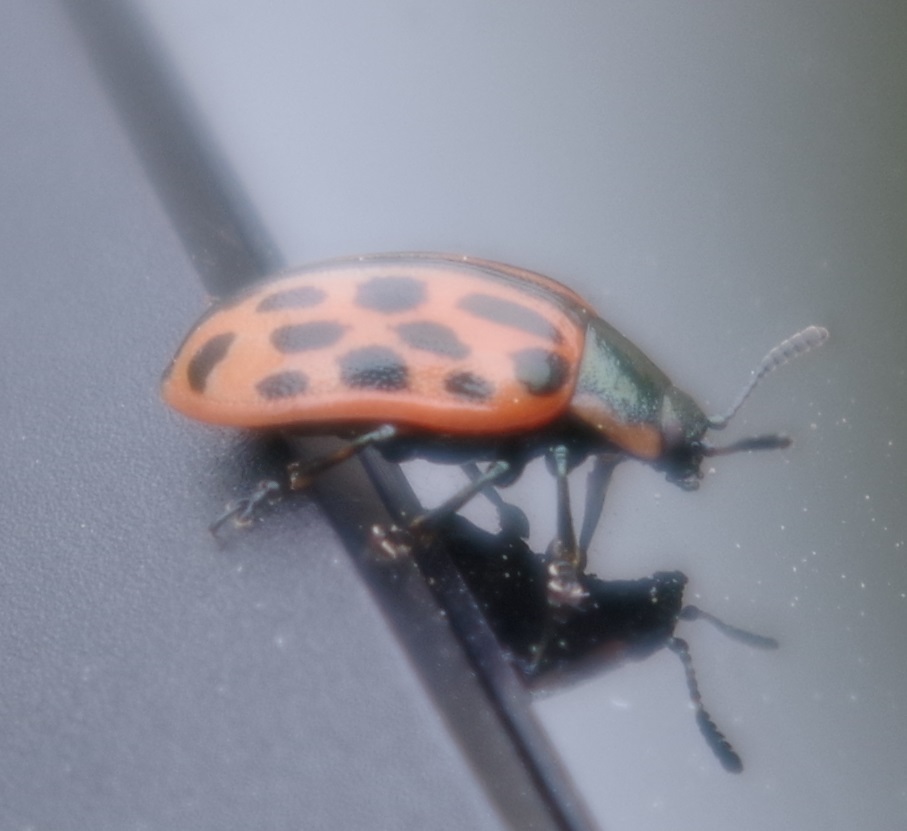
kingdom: Animalia
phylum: Arthropoda
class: Insecta
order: Coleoptera
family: Chrysomelidae
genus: Chrysomela
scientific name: Chrysomela vigintipunctata
